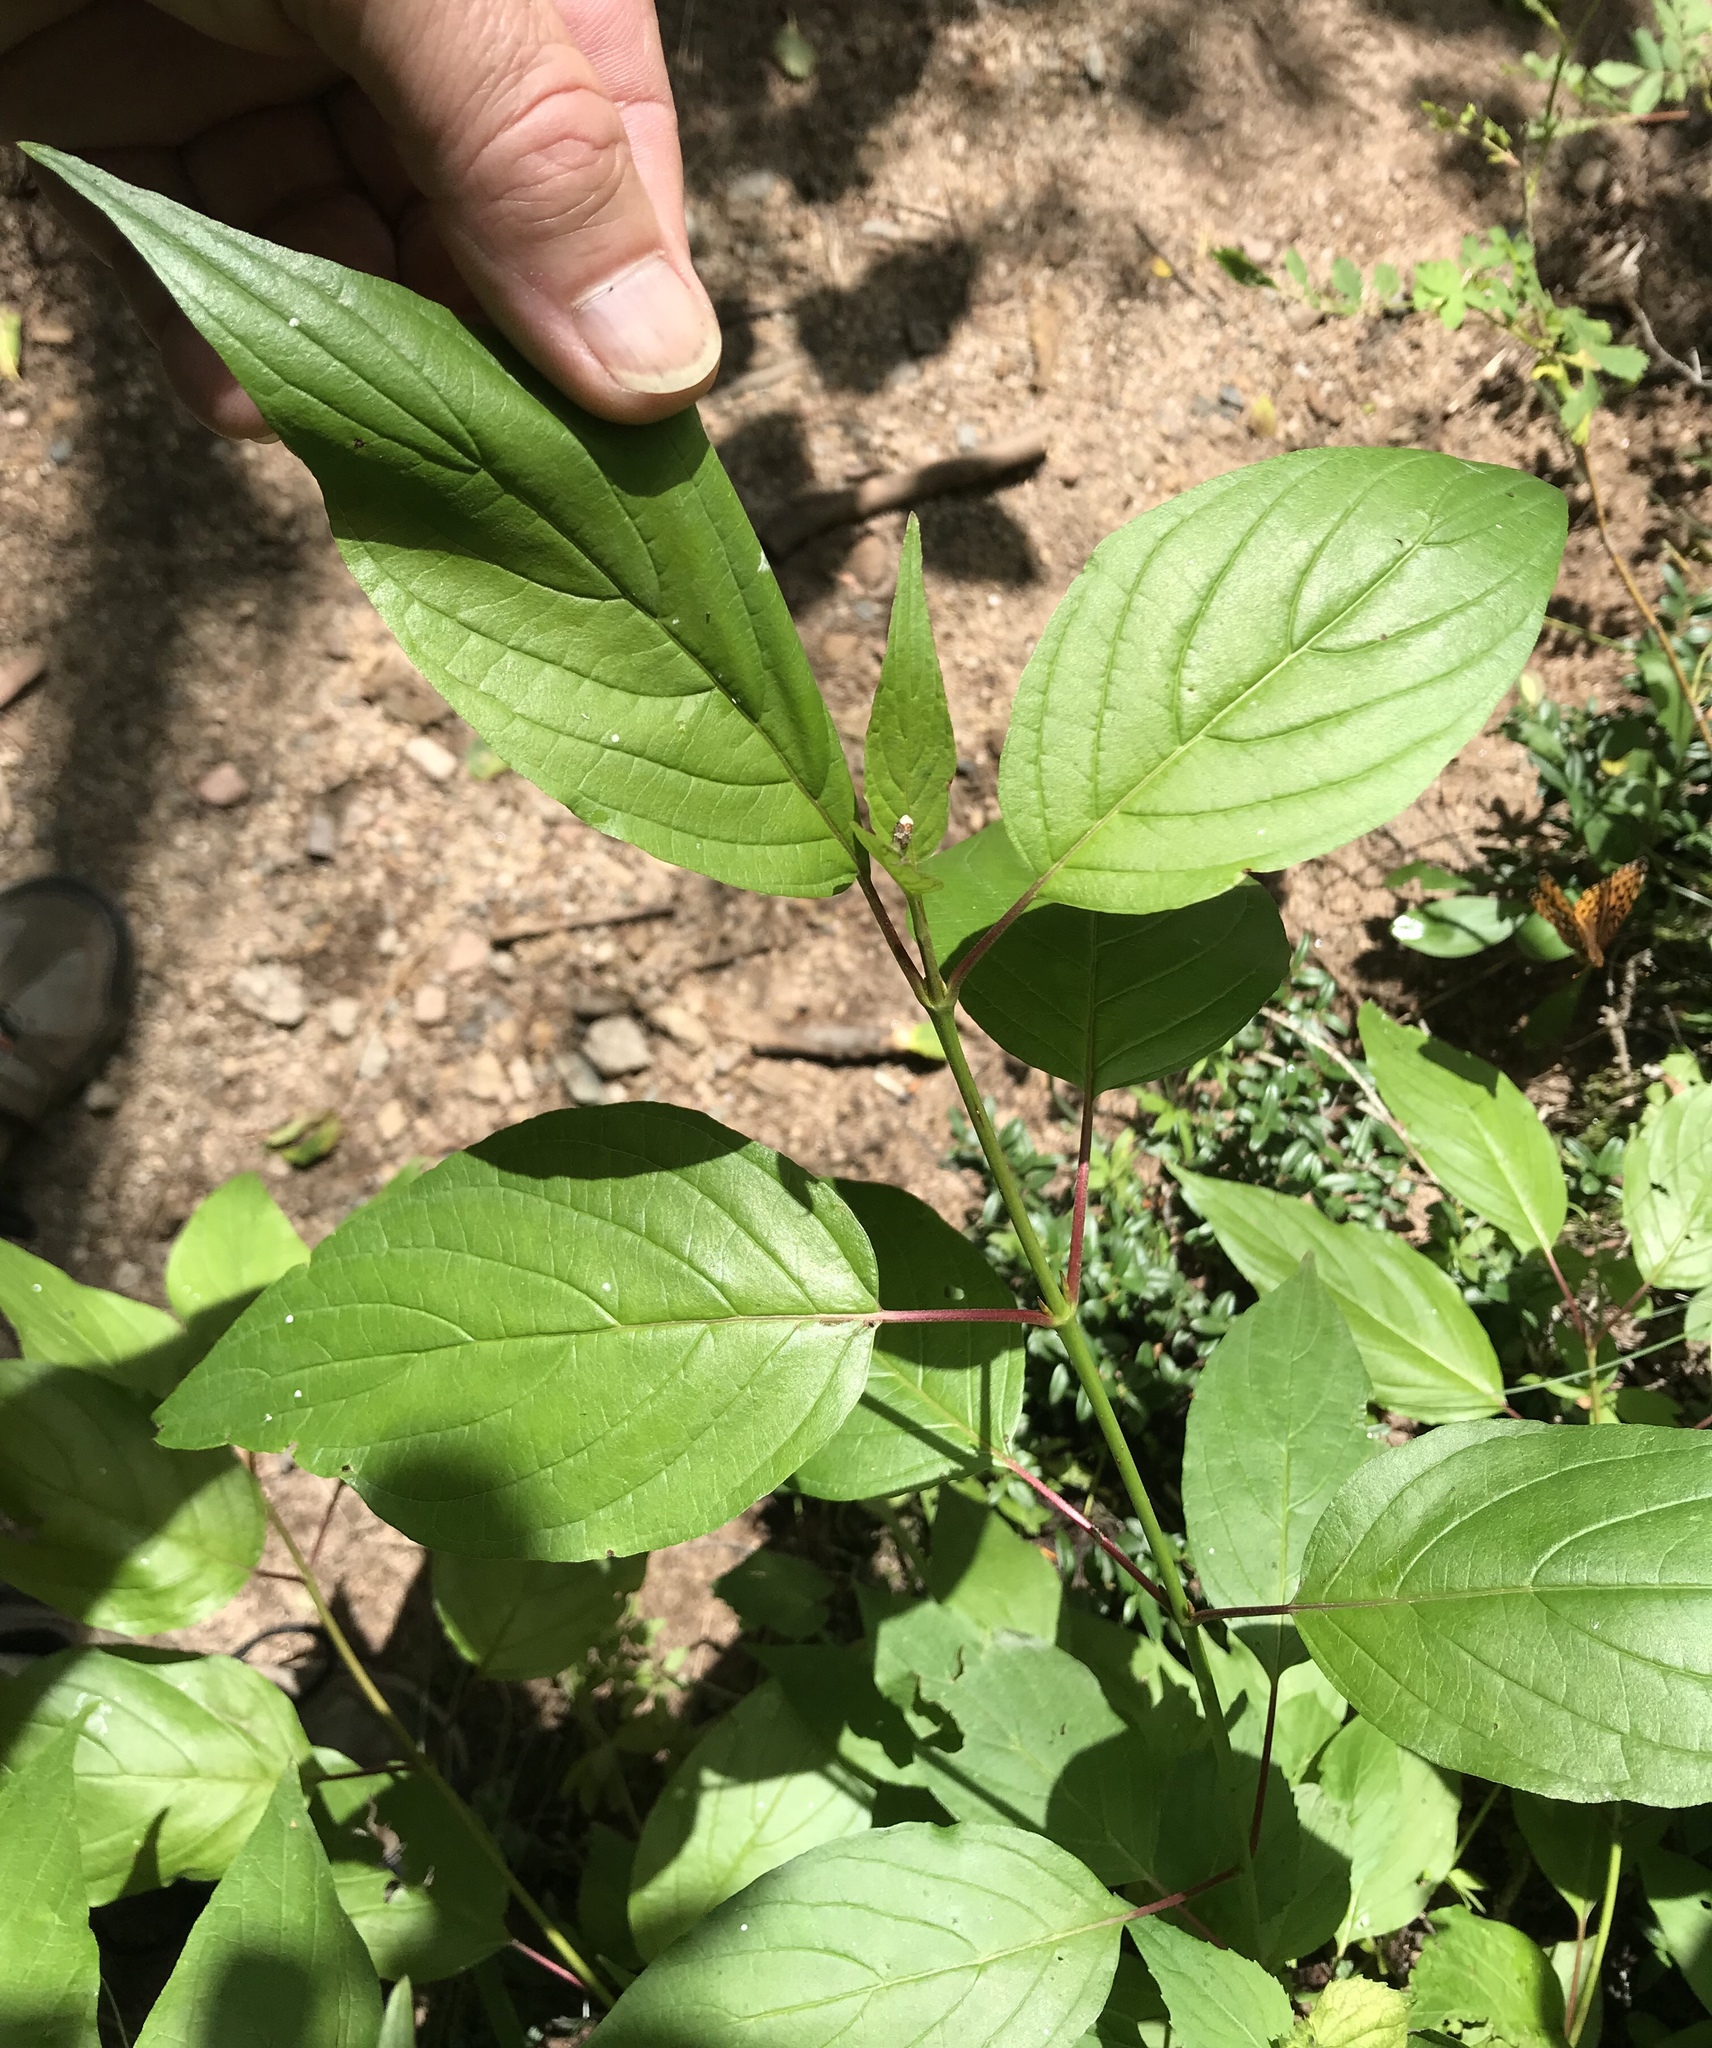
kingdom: Plantae
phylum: Tracheophyta
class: Magnoliopsida
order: Cornales
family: Cornaceae
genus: Cornus
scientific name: Cornus sericea
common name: Red-osier dogwood
